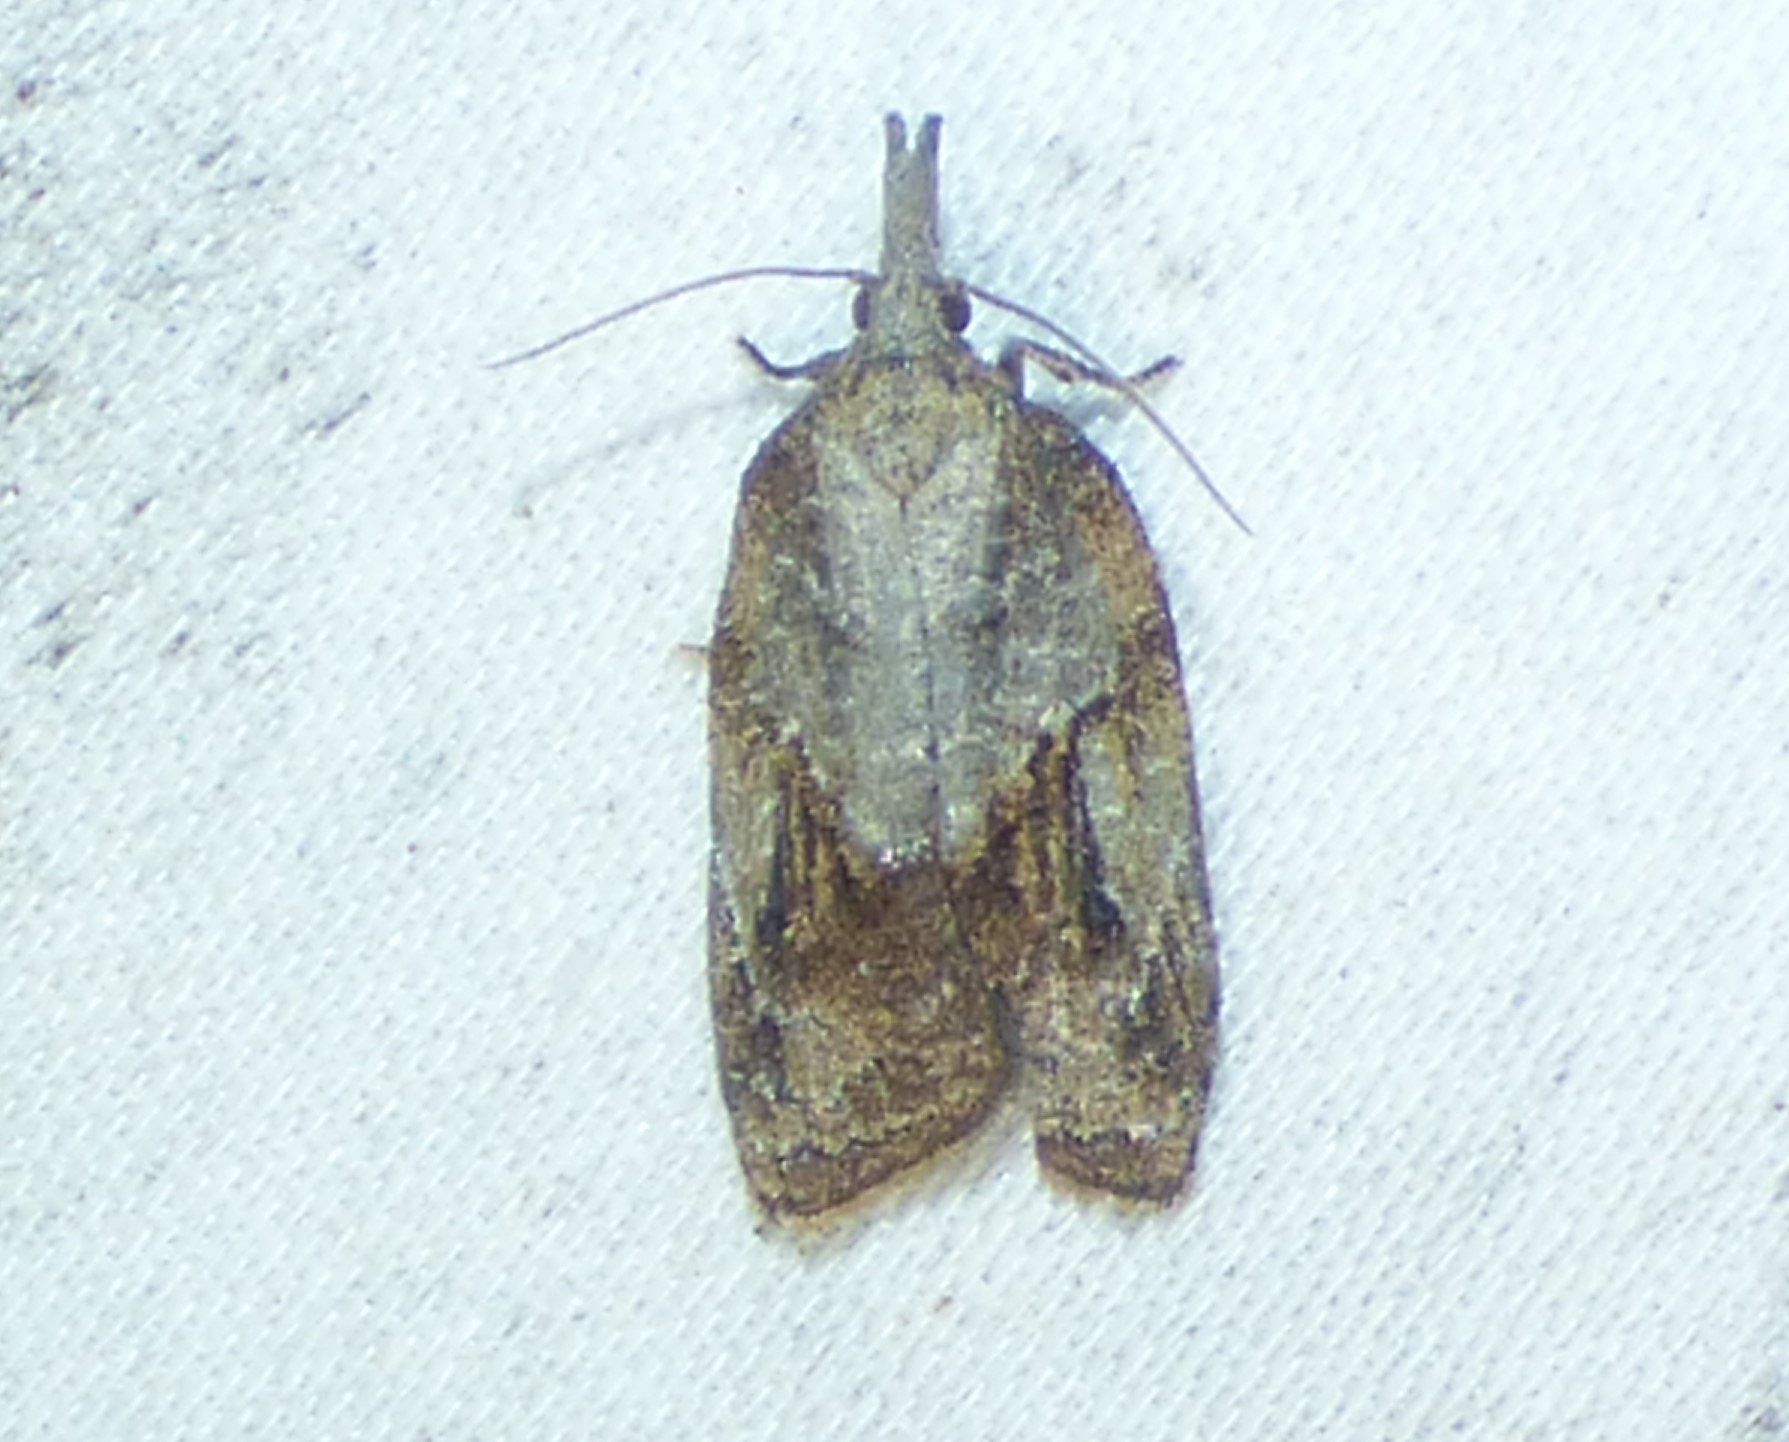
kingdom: Animalia
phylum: Arthropoda
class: Insecta
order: Lepidoptera
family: Tortricidae
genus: Platynota
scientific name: Platynota idaeusalis
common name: Tufted apple bud moth
